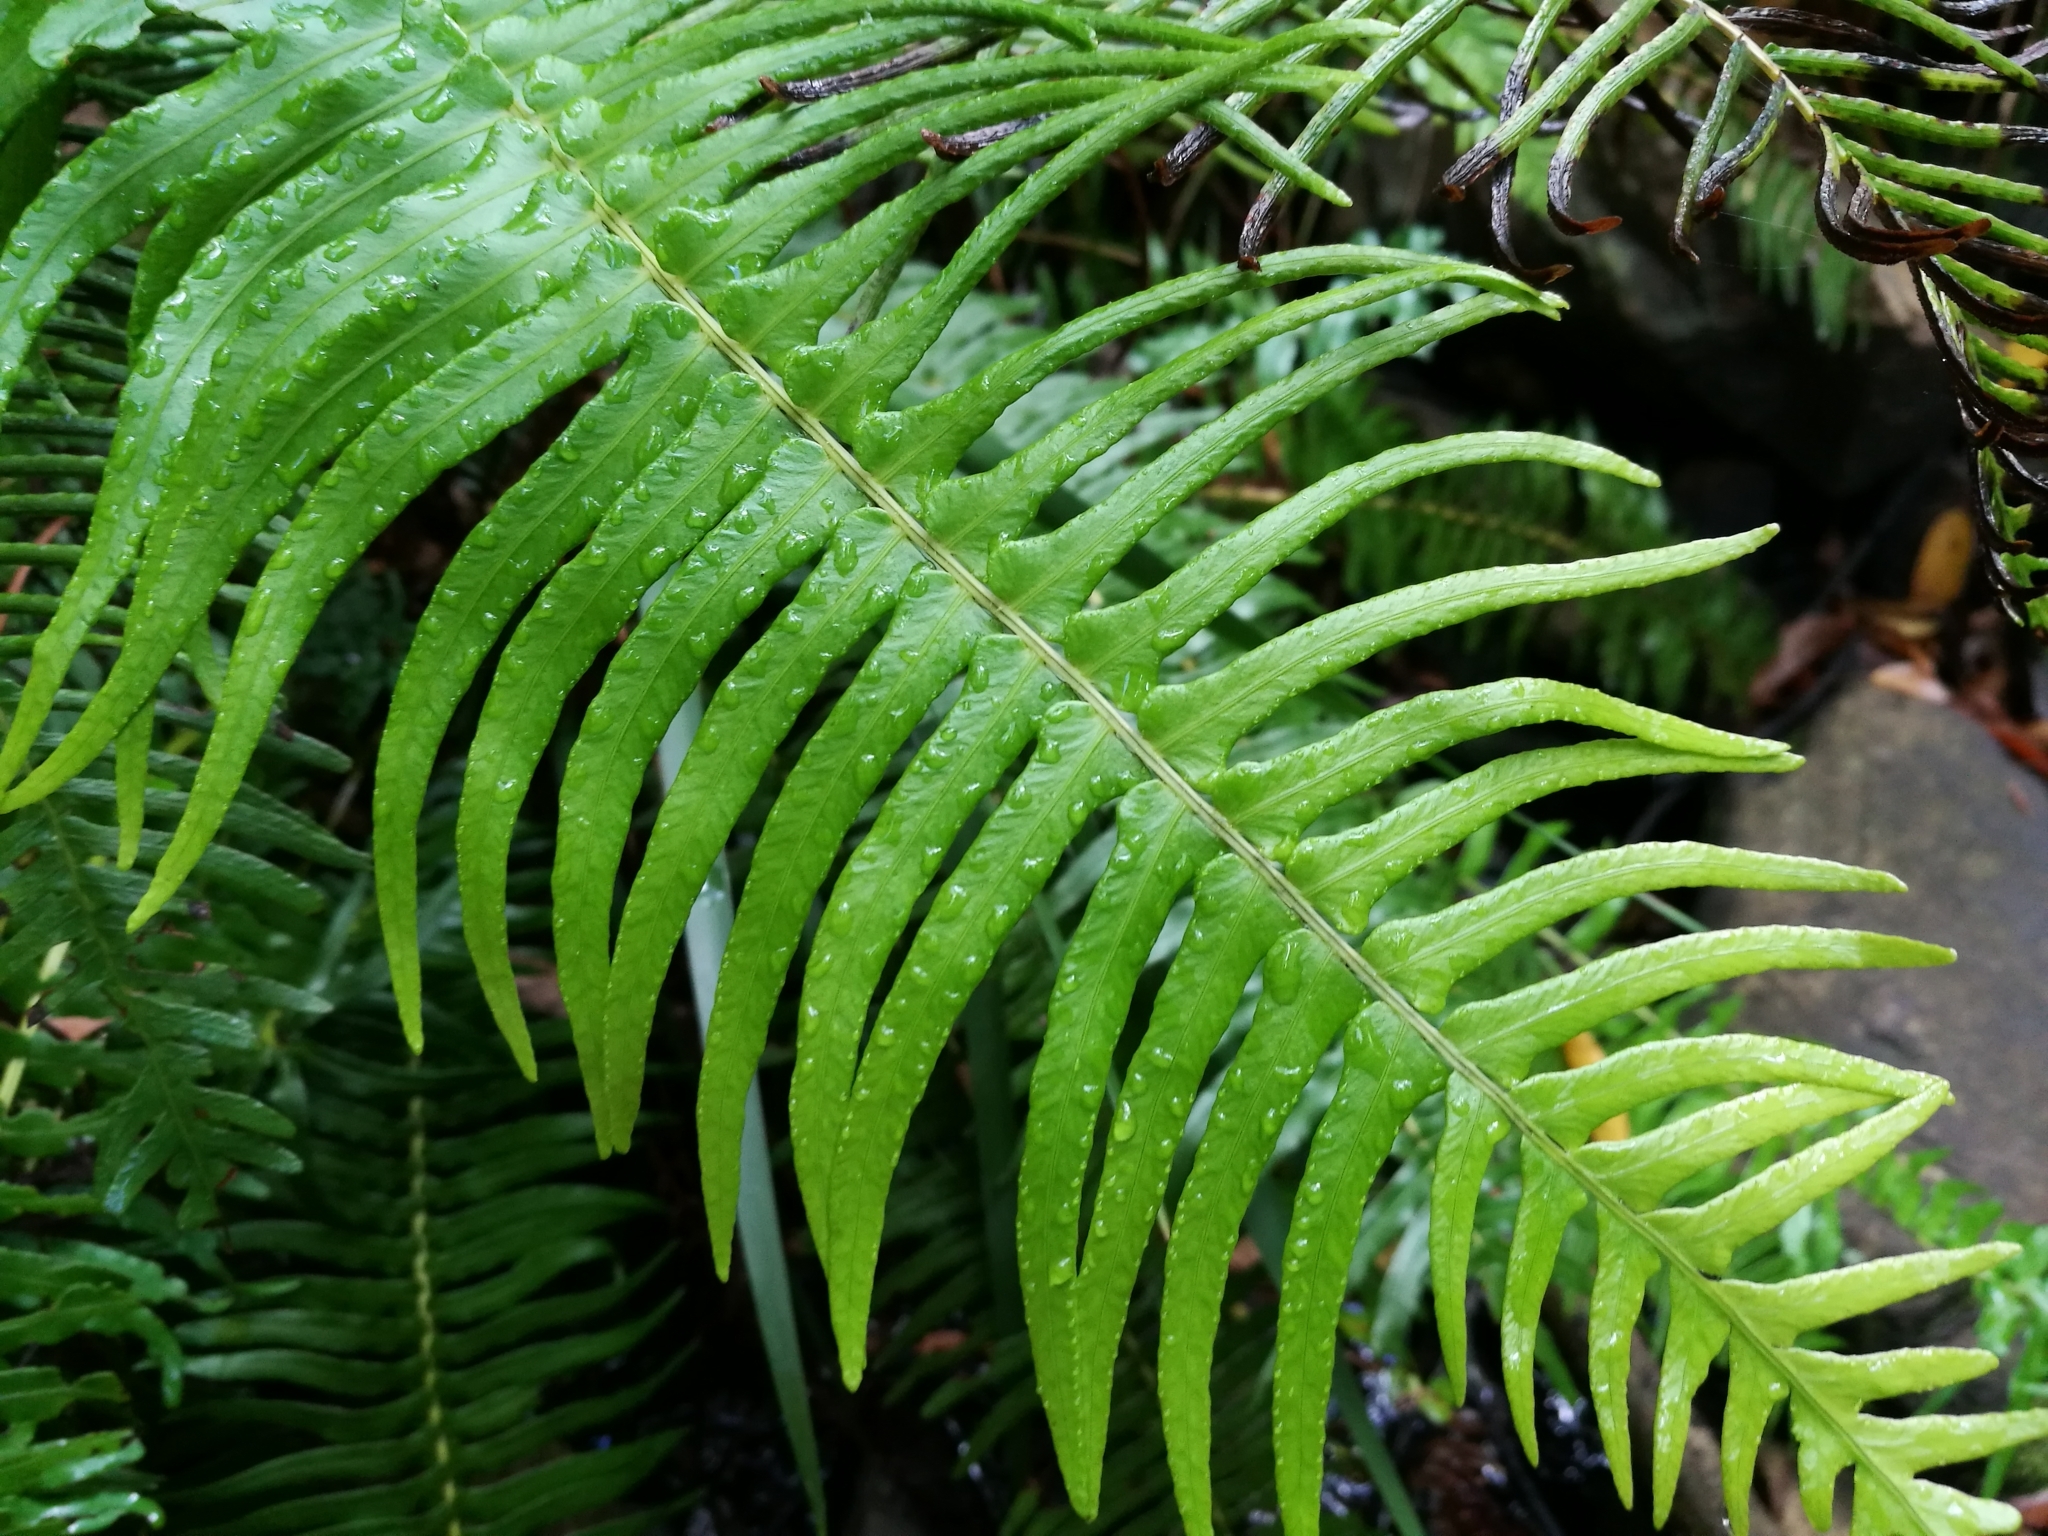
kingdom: Plantae
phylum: Tracheophyta
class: Polypodiopsida
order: Polypodiales
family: Blechnaceae
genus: Blechnum
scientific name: Blechnum punctulatum
